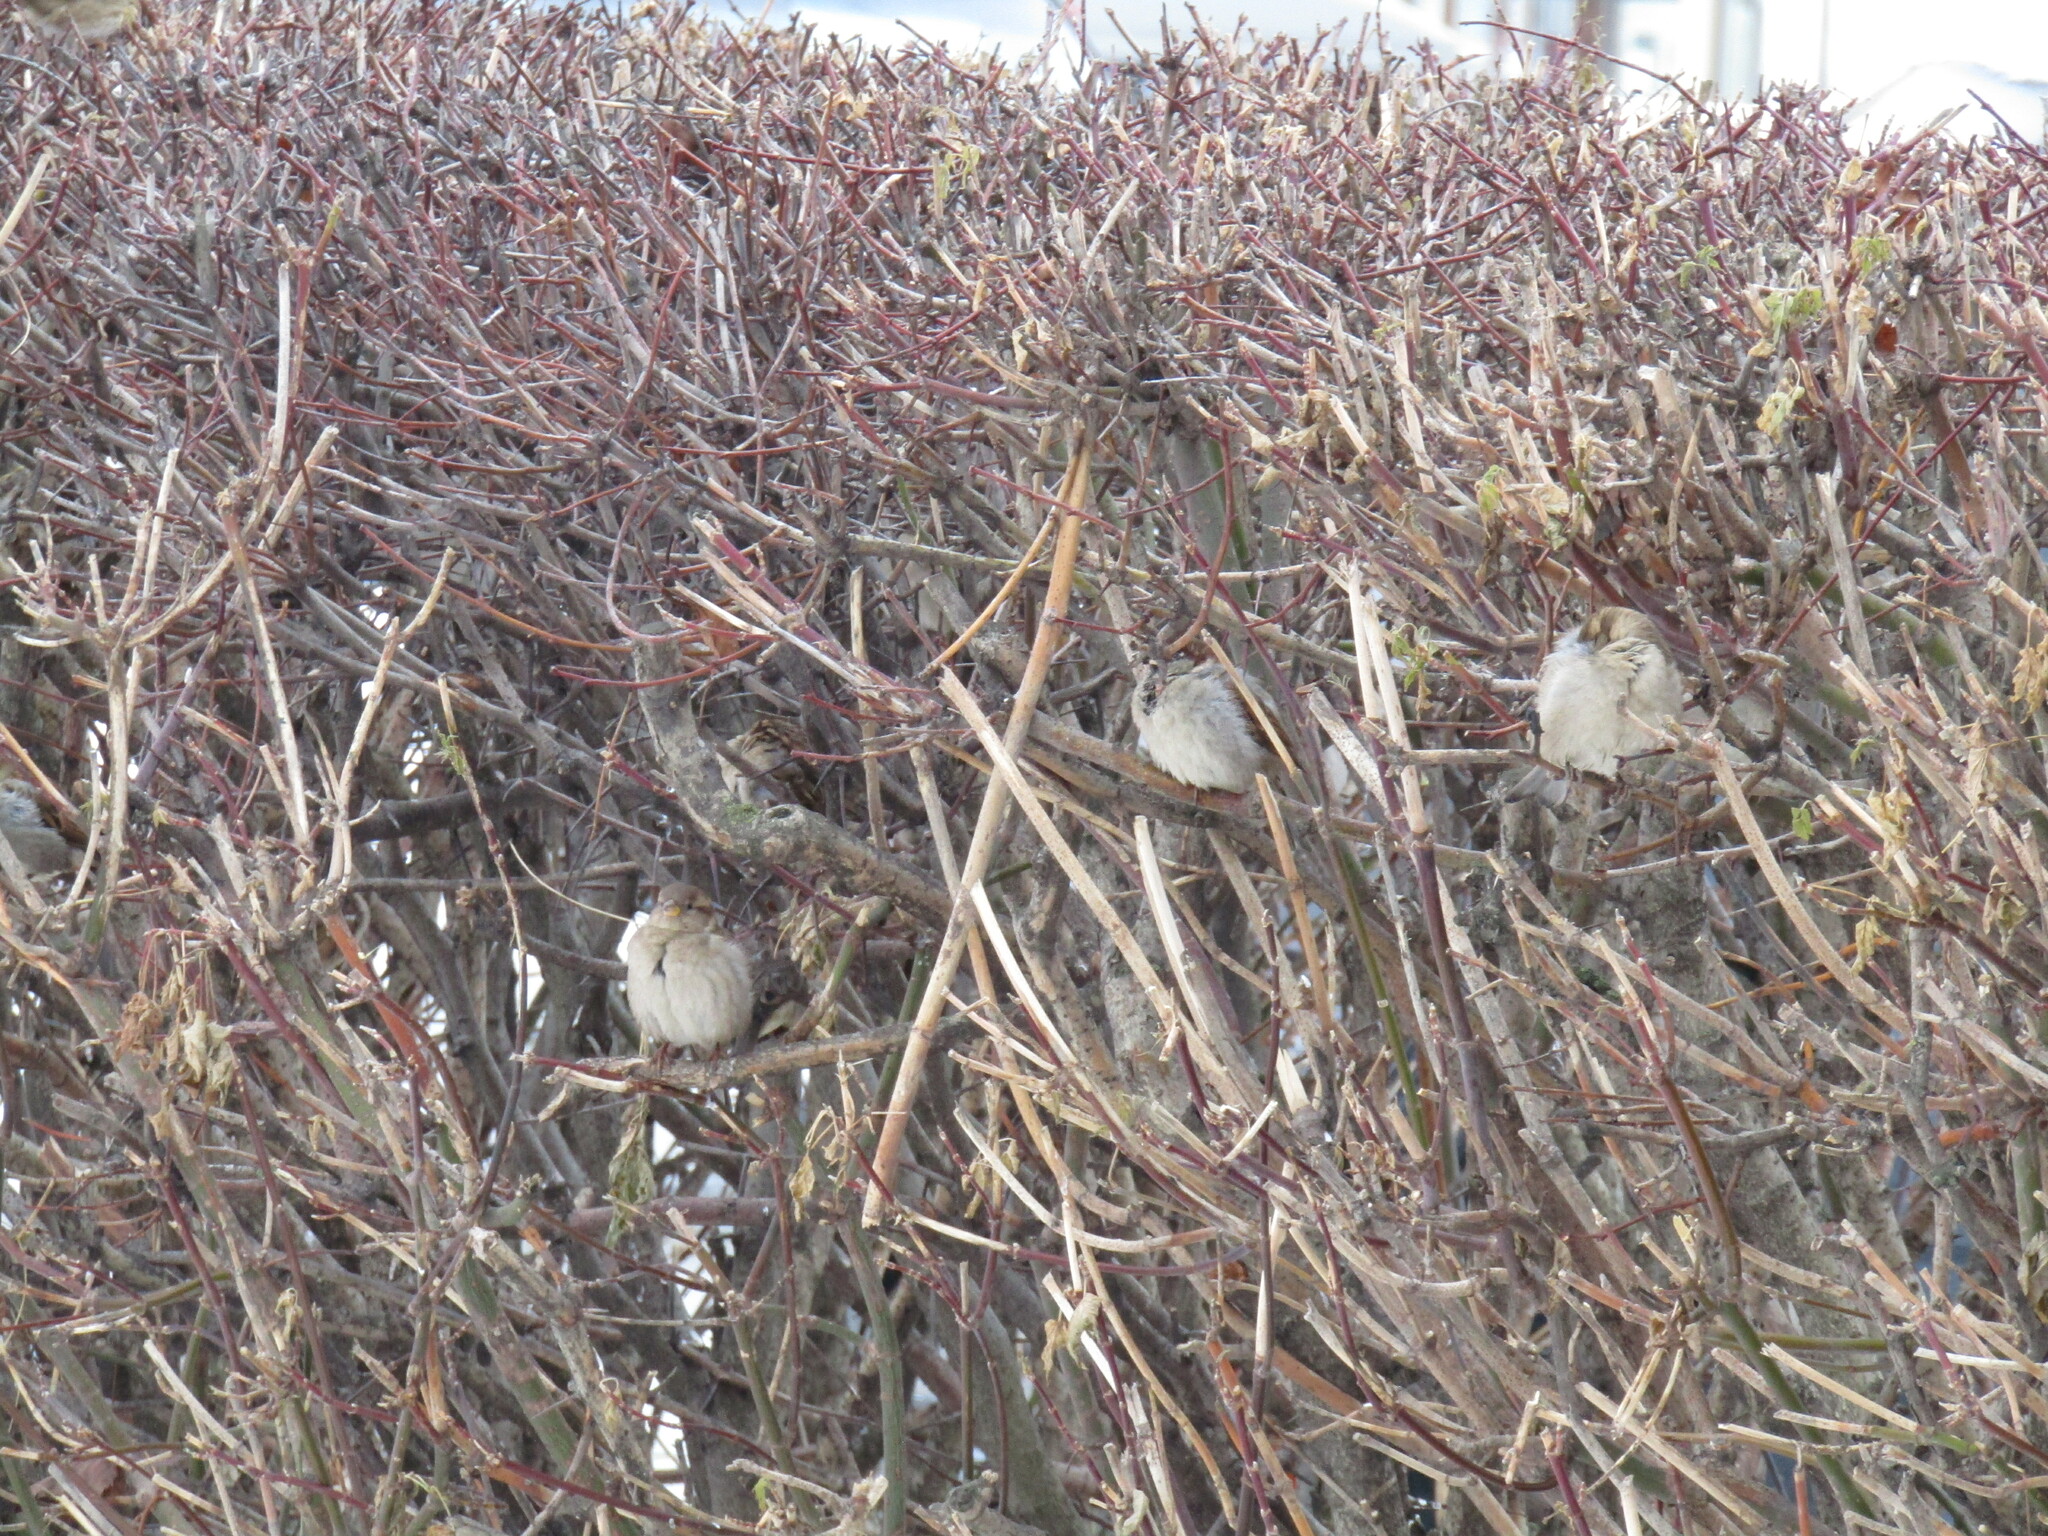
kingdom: Animalia
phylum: Chordata
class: Aves
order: Passeriformes
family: Passeridae
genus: Passer
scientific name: Passer domesticus
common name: House sparrow
